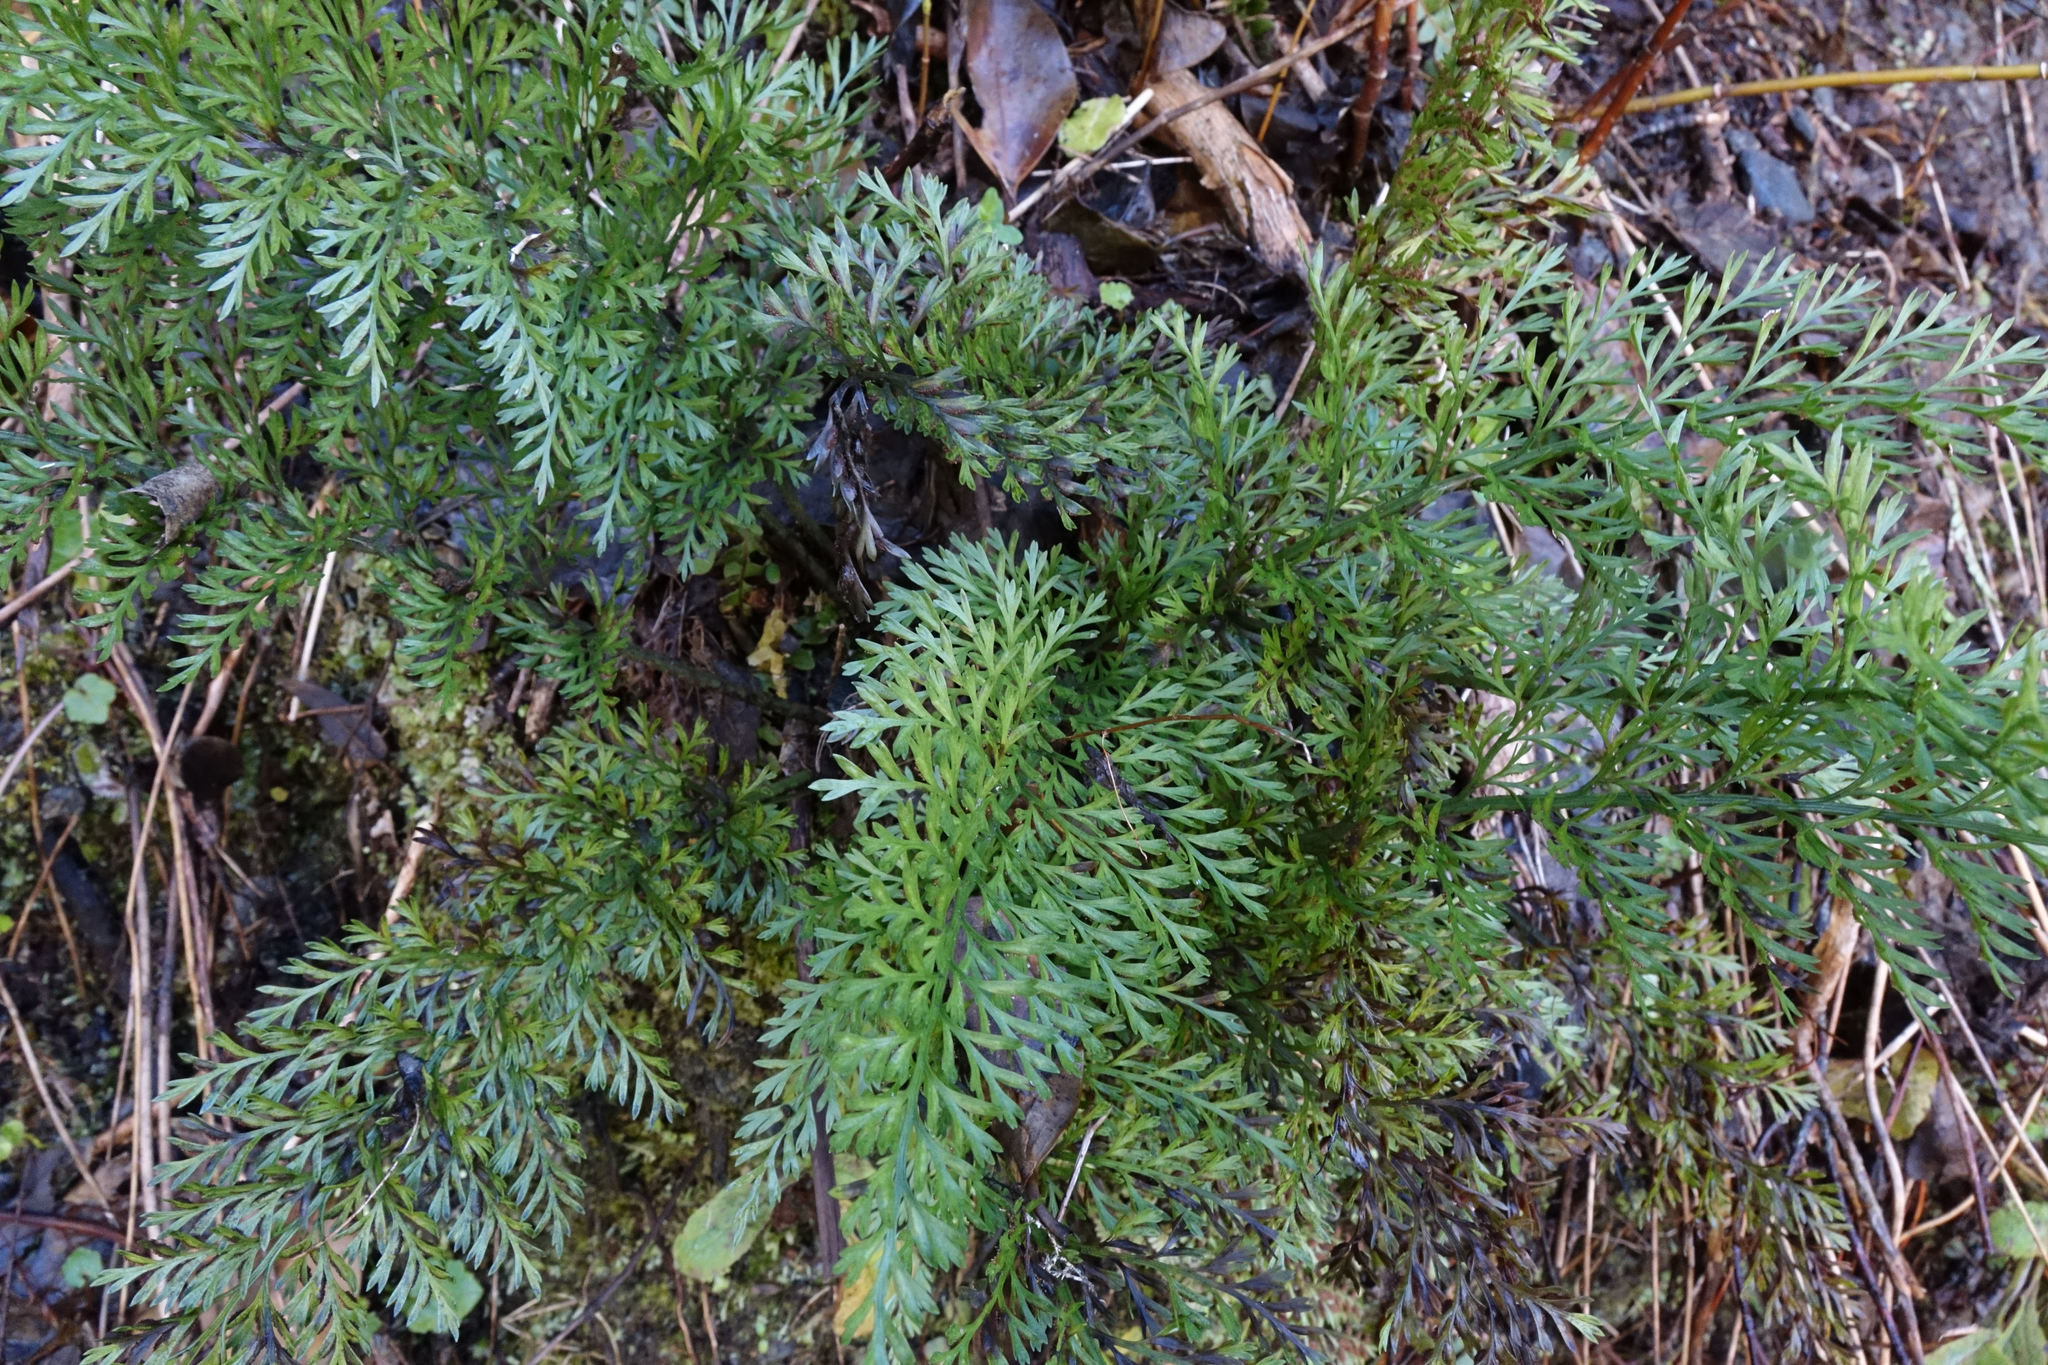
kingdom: Plantae
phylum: Tracheophyta
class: Polypodiopsida
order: Polypodiales
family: Aspleniaceae
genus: Asplenium
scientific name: Asplenium richardii
